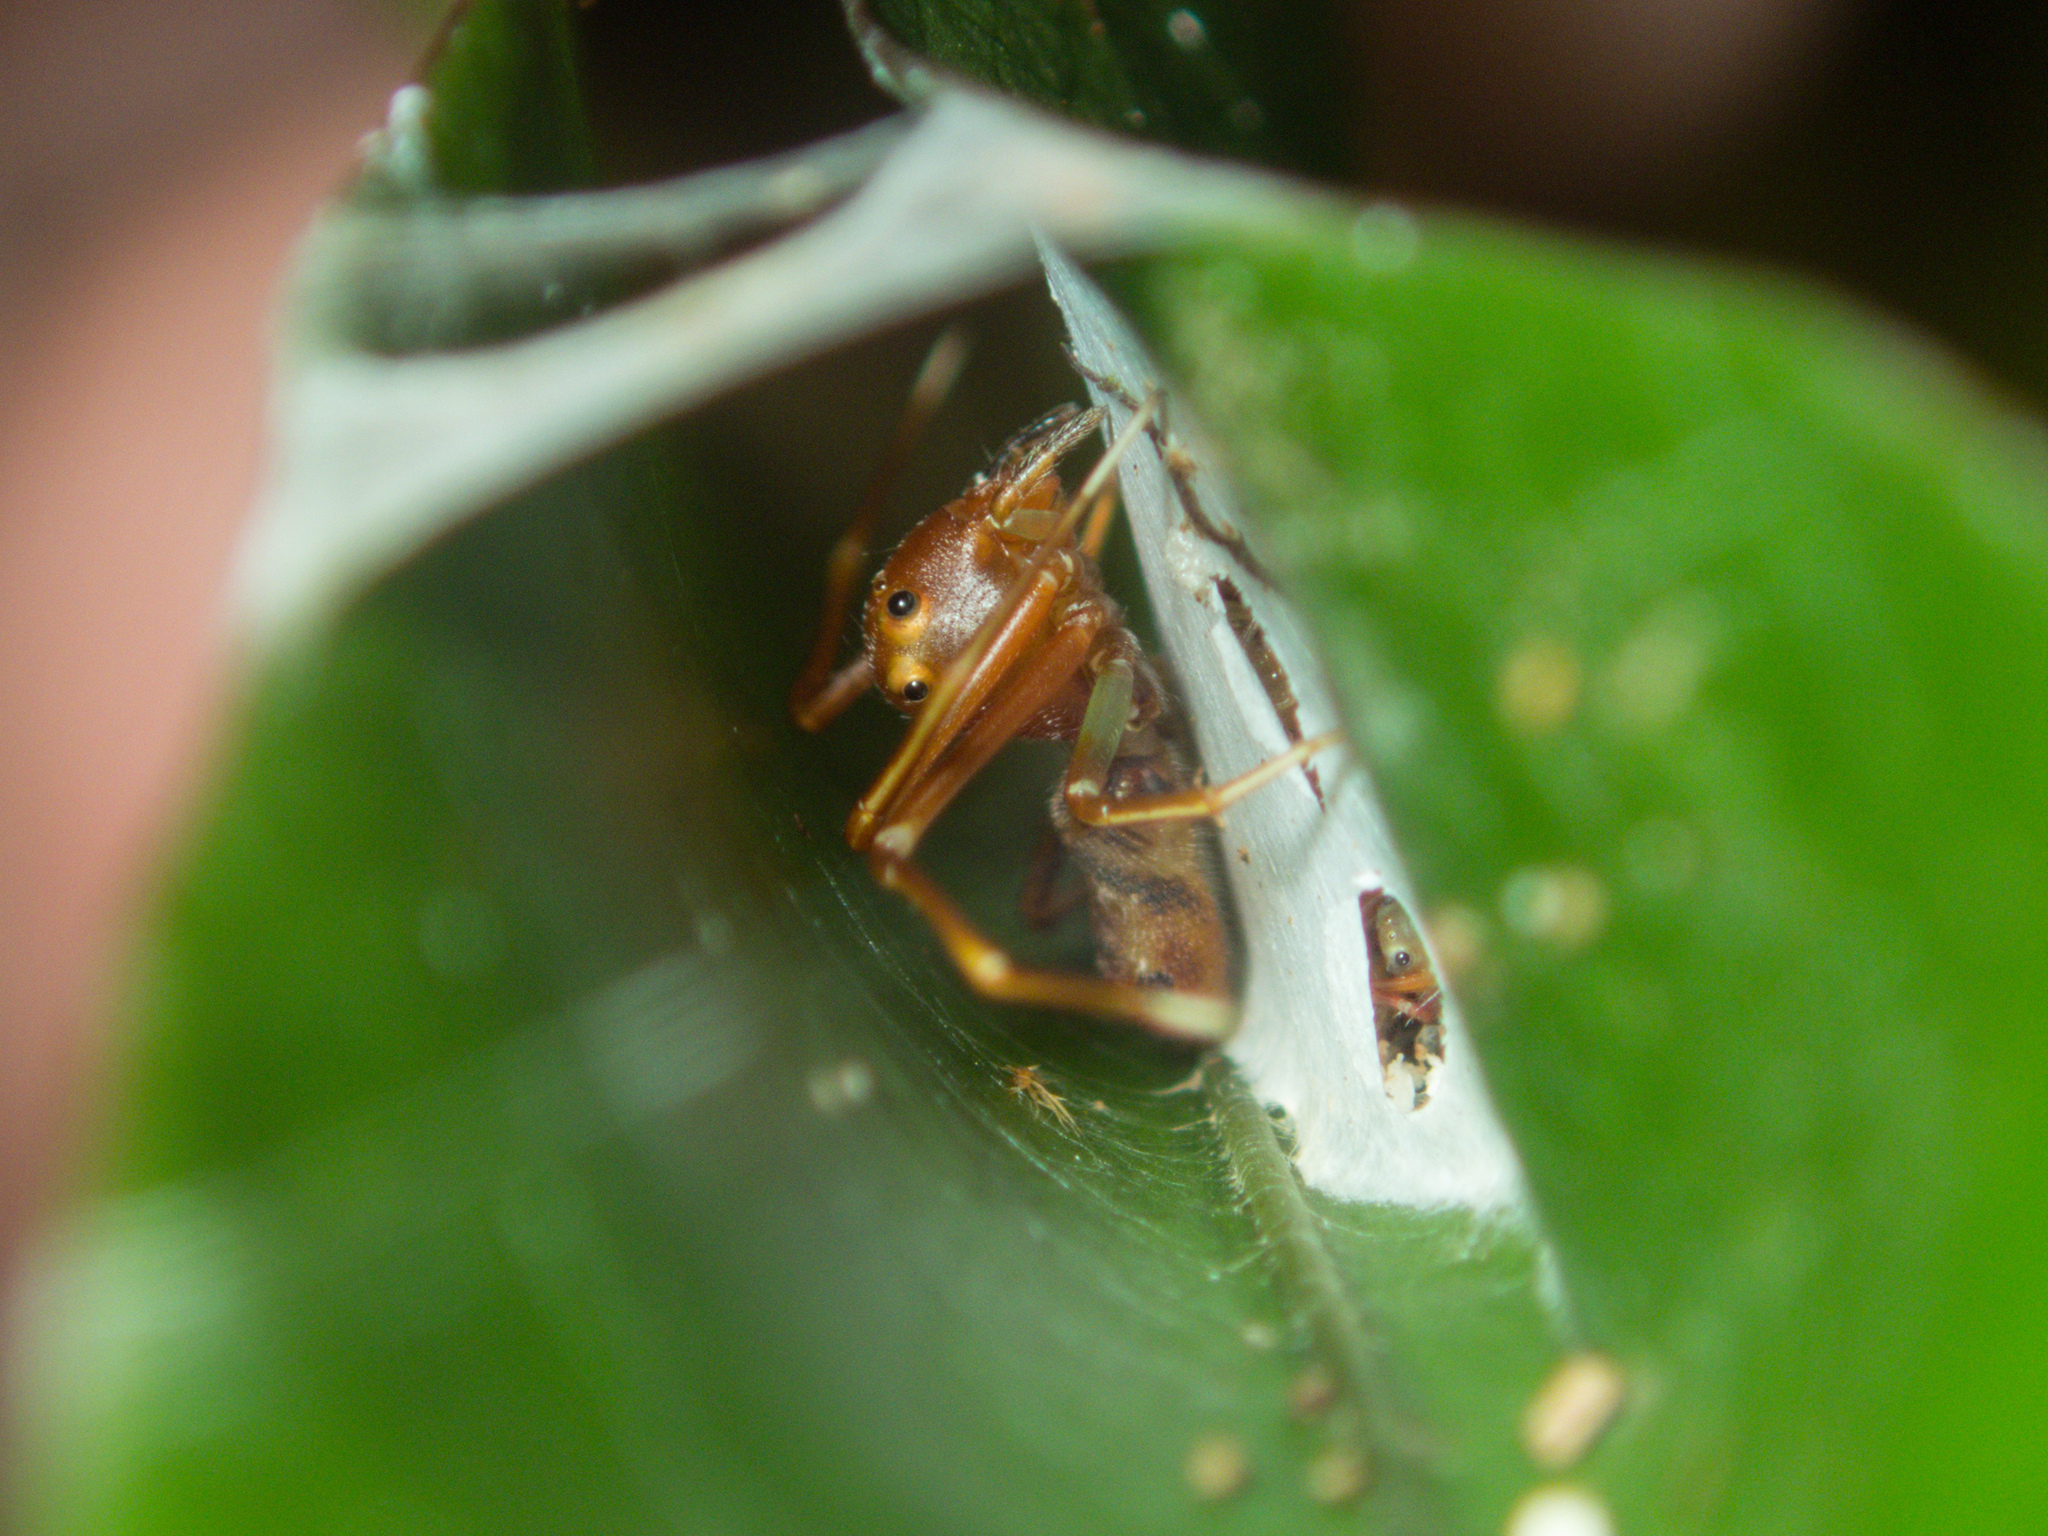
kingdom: Animalia
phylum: Arthropoda
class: Arachnida
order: Araneae
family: Thomisidae
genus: Amyciaea
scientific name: Amyciaea forticeps
